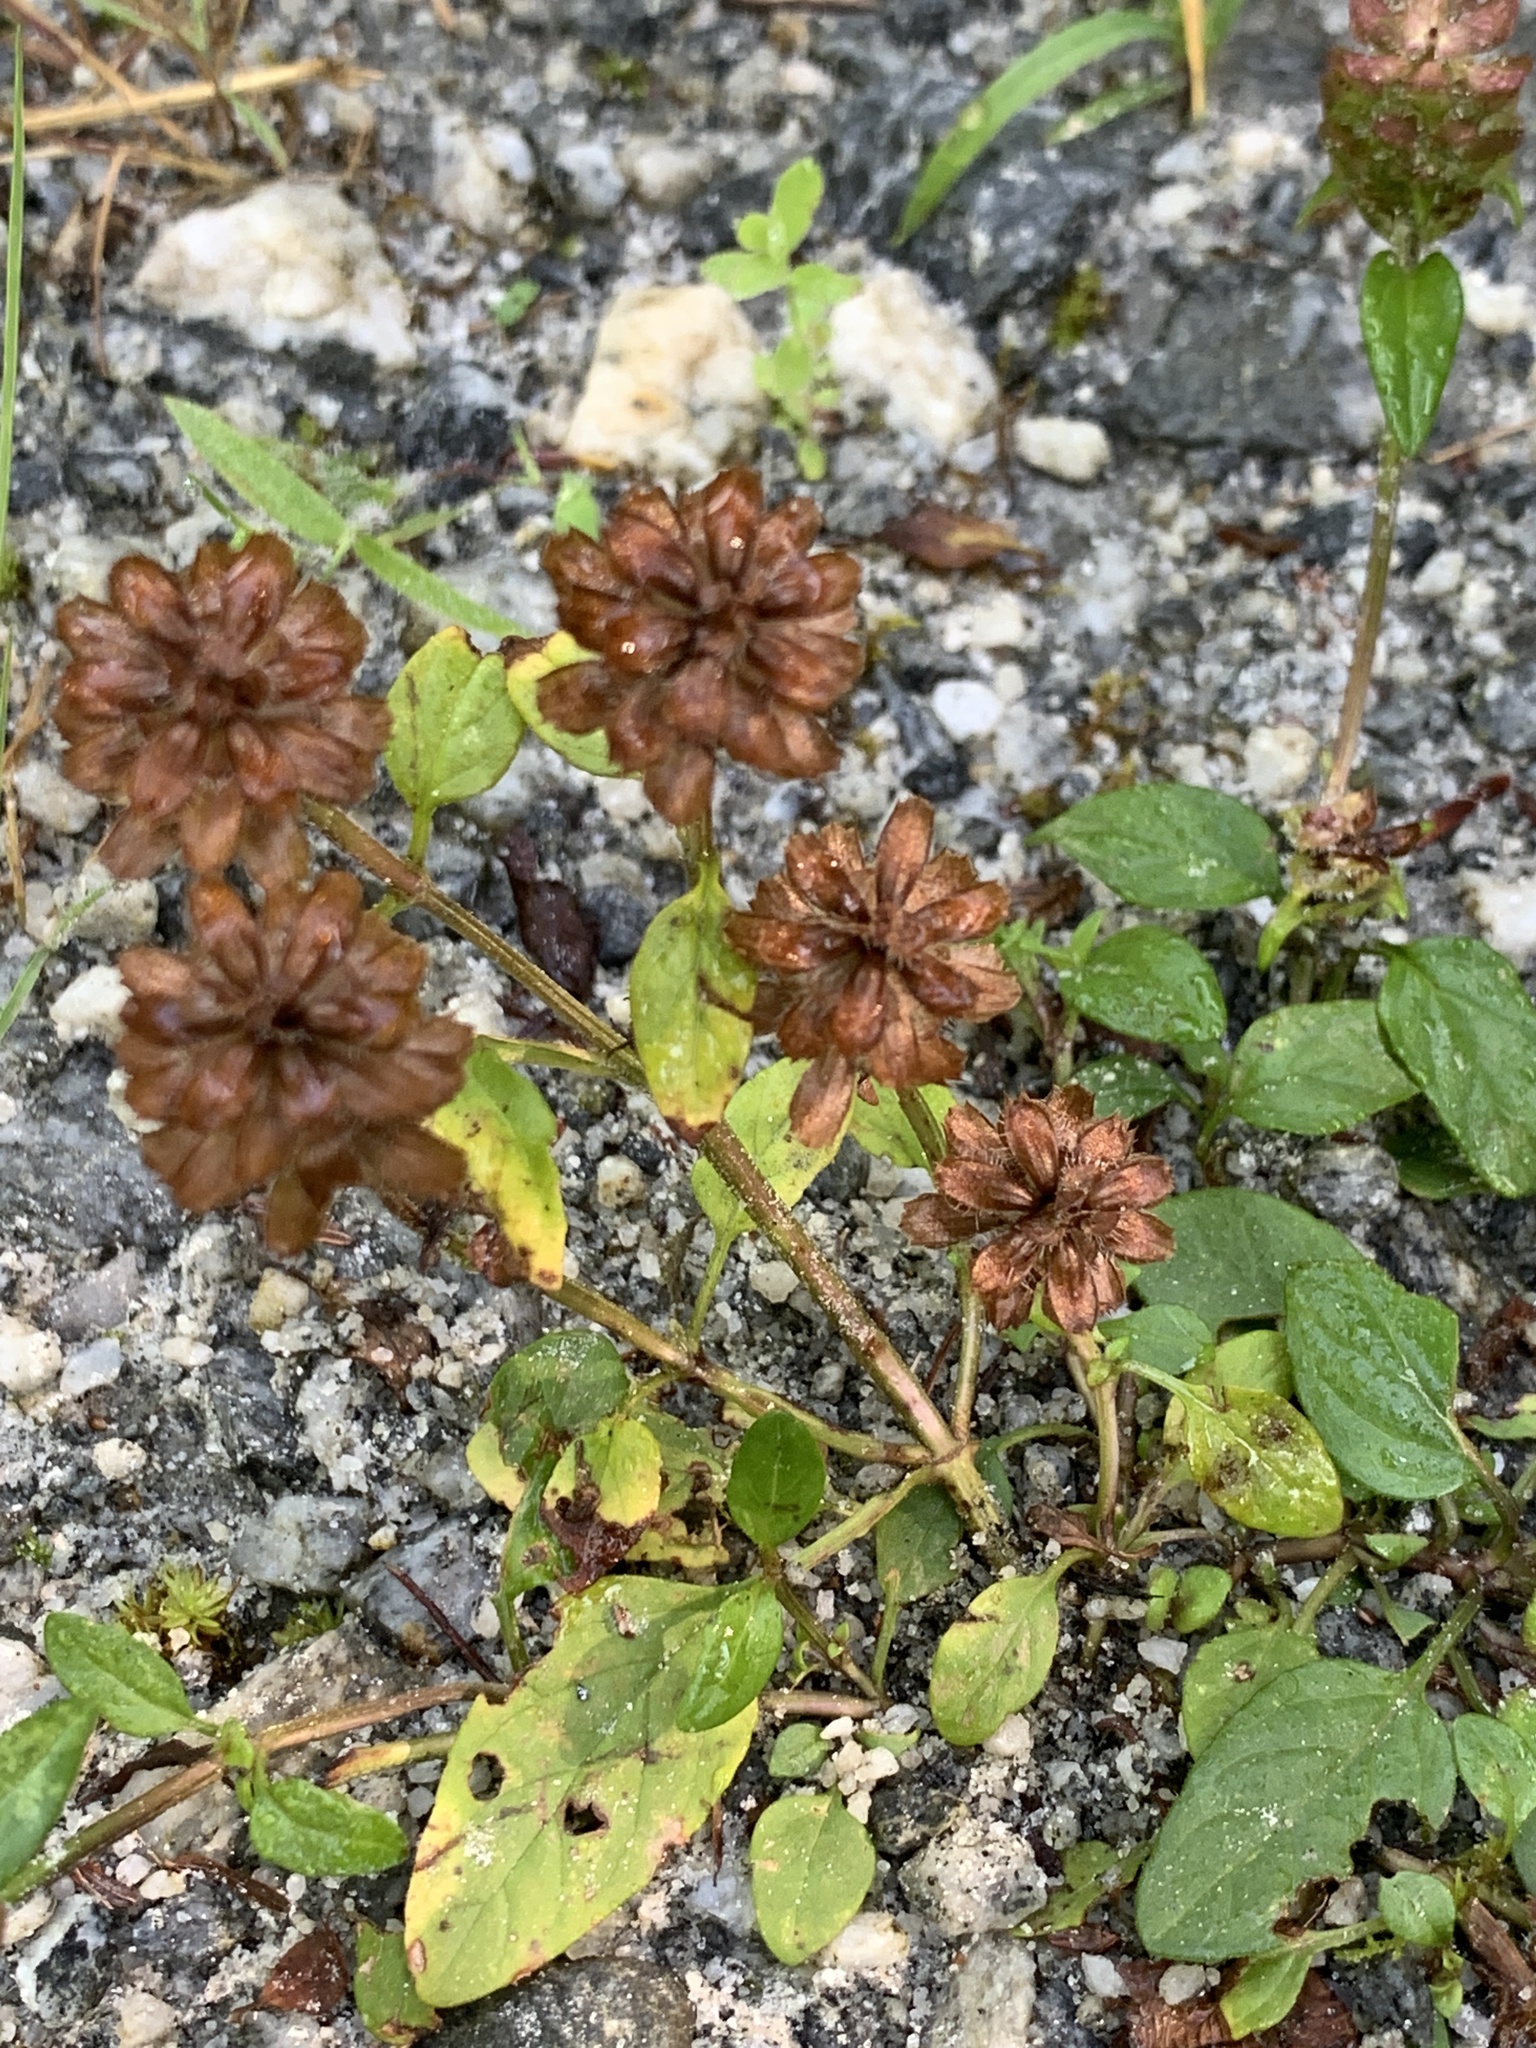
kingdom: Plantae
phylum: Tracheophyta
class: Magnoliopsida
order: Lamiales
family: Lamiaceae
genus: Prunella
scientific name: Prunella vulgaris
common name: Heal-all
